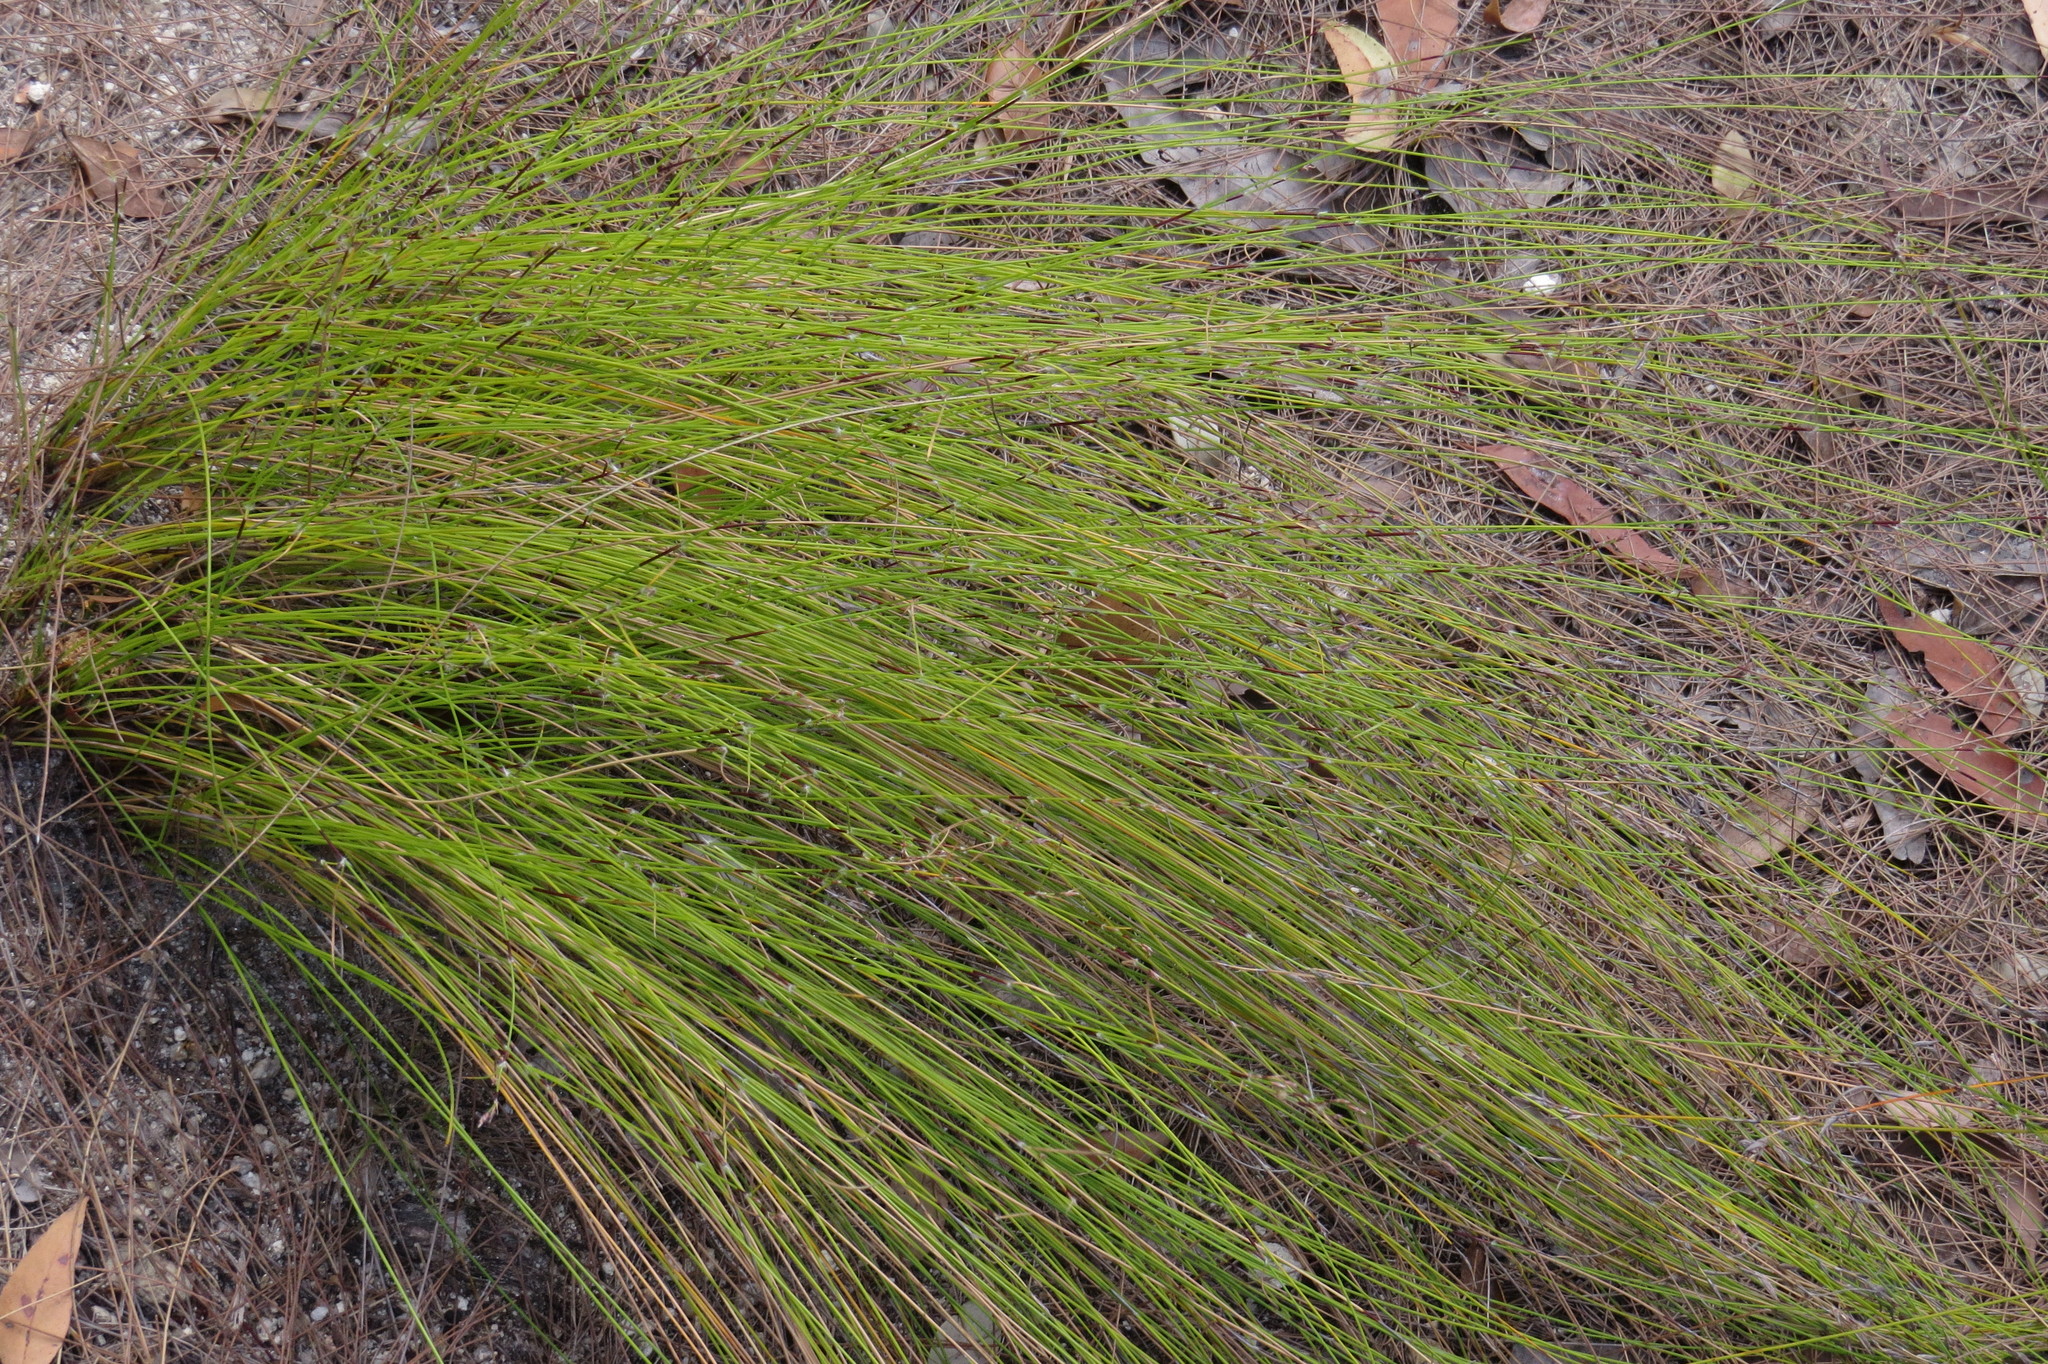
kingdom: Plantae
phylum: Tracheophyta
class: Liliopsida
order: Poales
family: Cyperaceae
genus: Schoenus
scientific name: Schoenus sparteus
